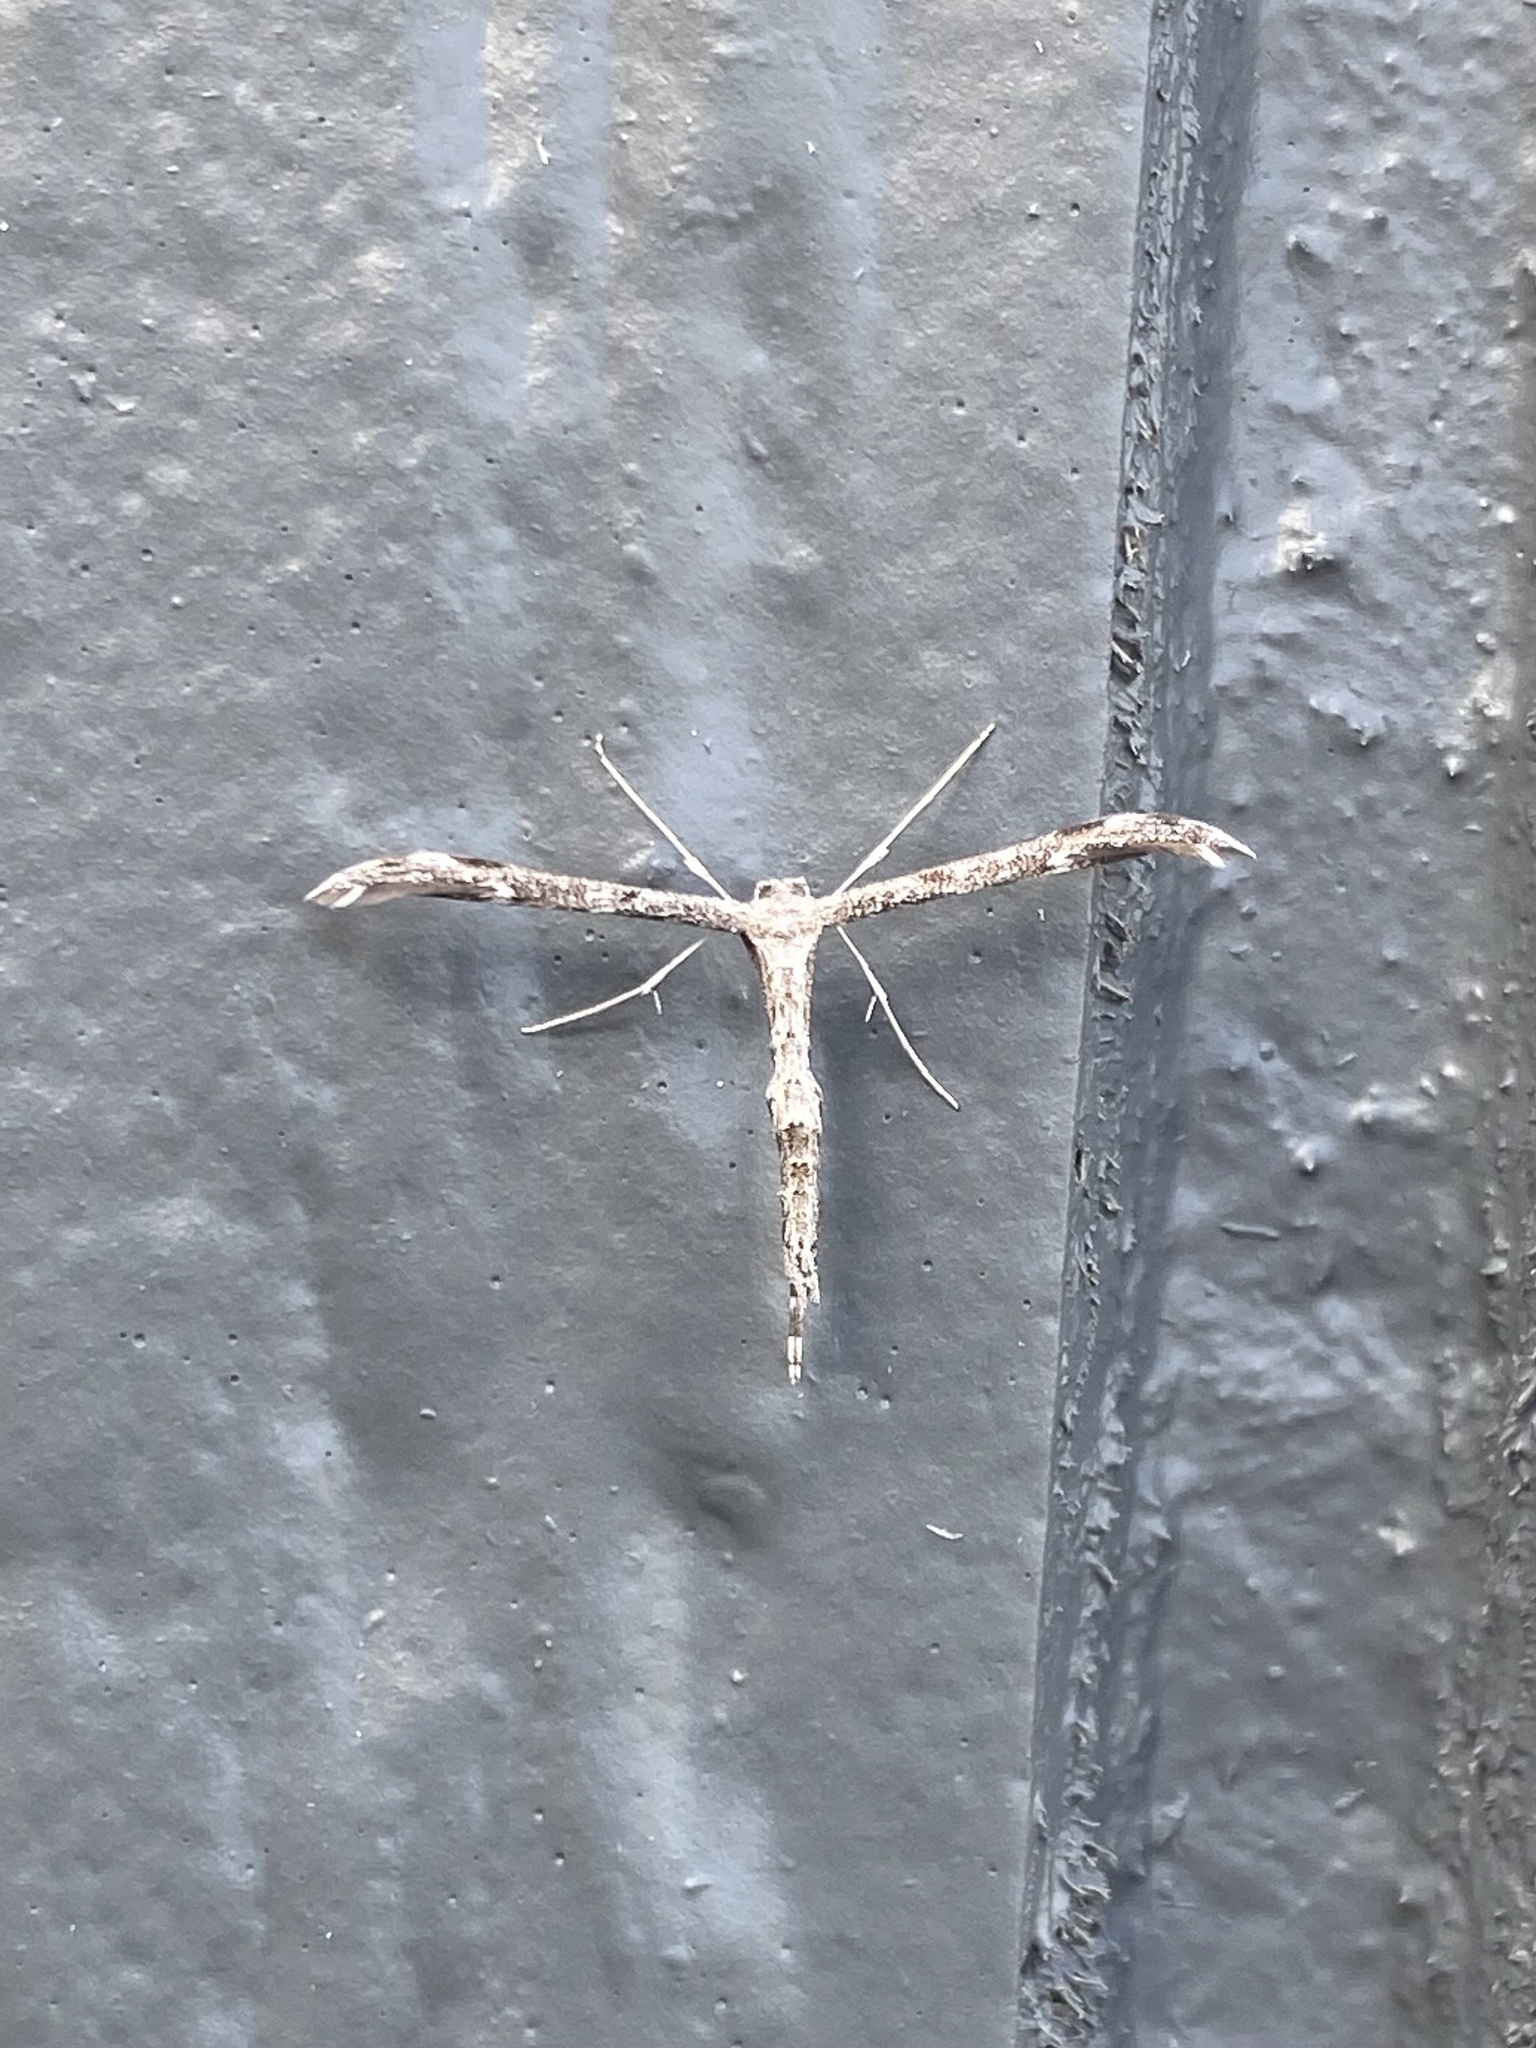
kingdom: Animalia
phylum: Arthropoda
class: Insecta
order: Lepidoptera
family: Pterophoridae
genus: Hellinsia
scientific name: Hellinsia inquinatus
